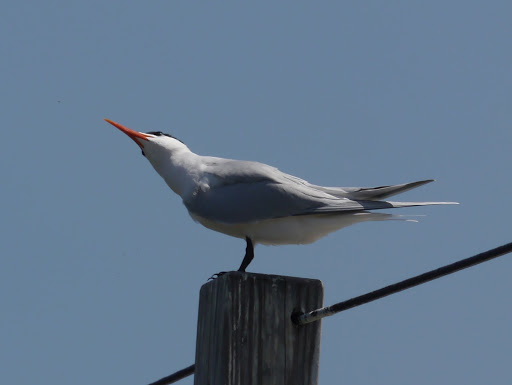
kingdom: Animalia
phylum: Chordata
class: Aves
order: Charadriiformes
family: Laridae
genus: Thalasseus
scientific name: Thalasseus maximus
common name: Royal tern
